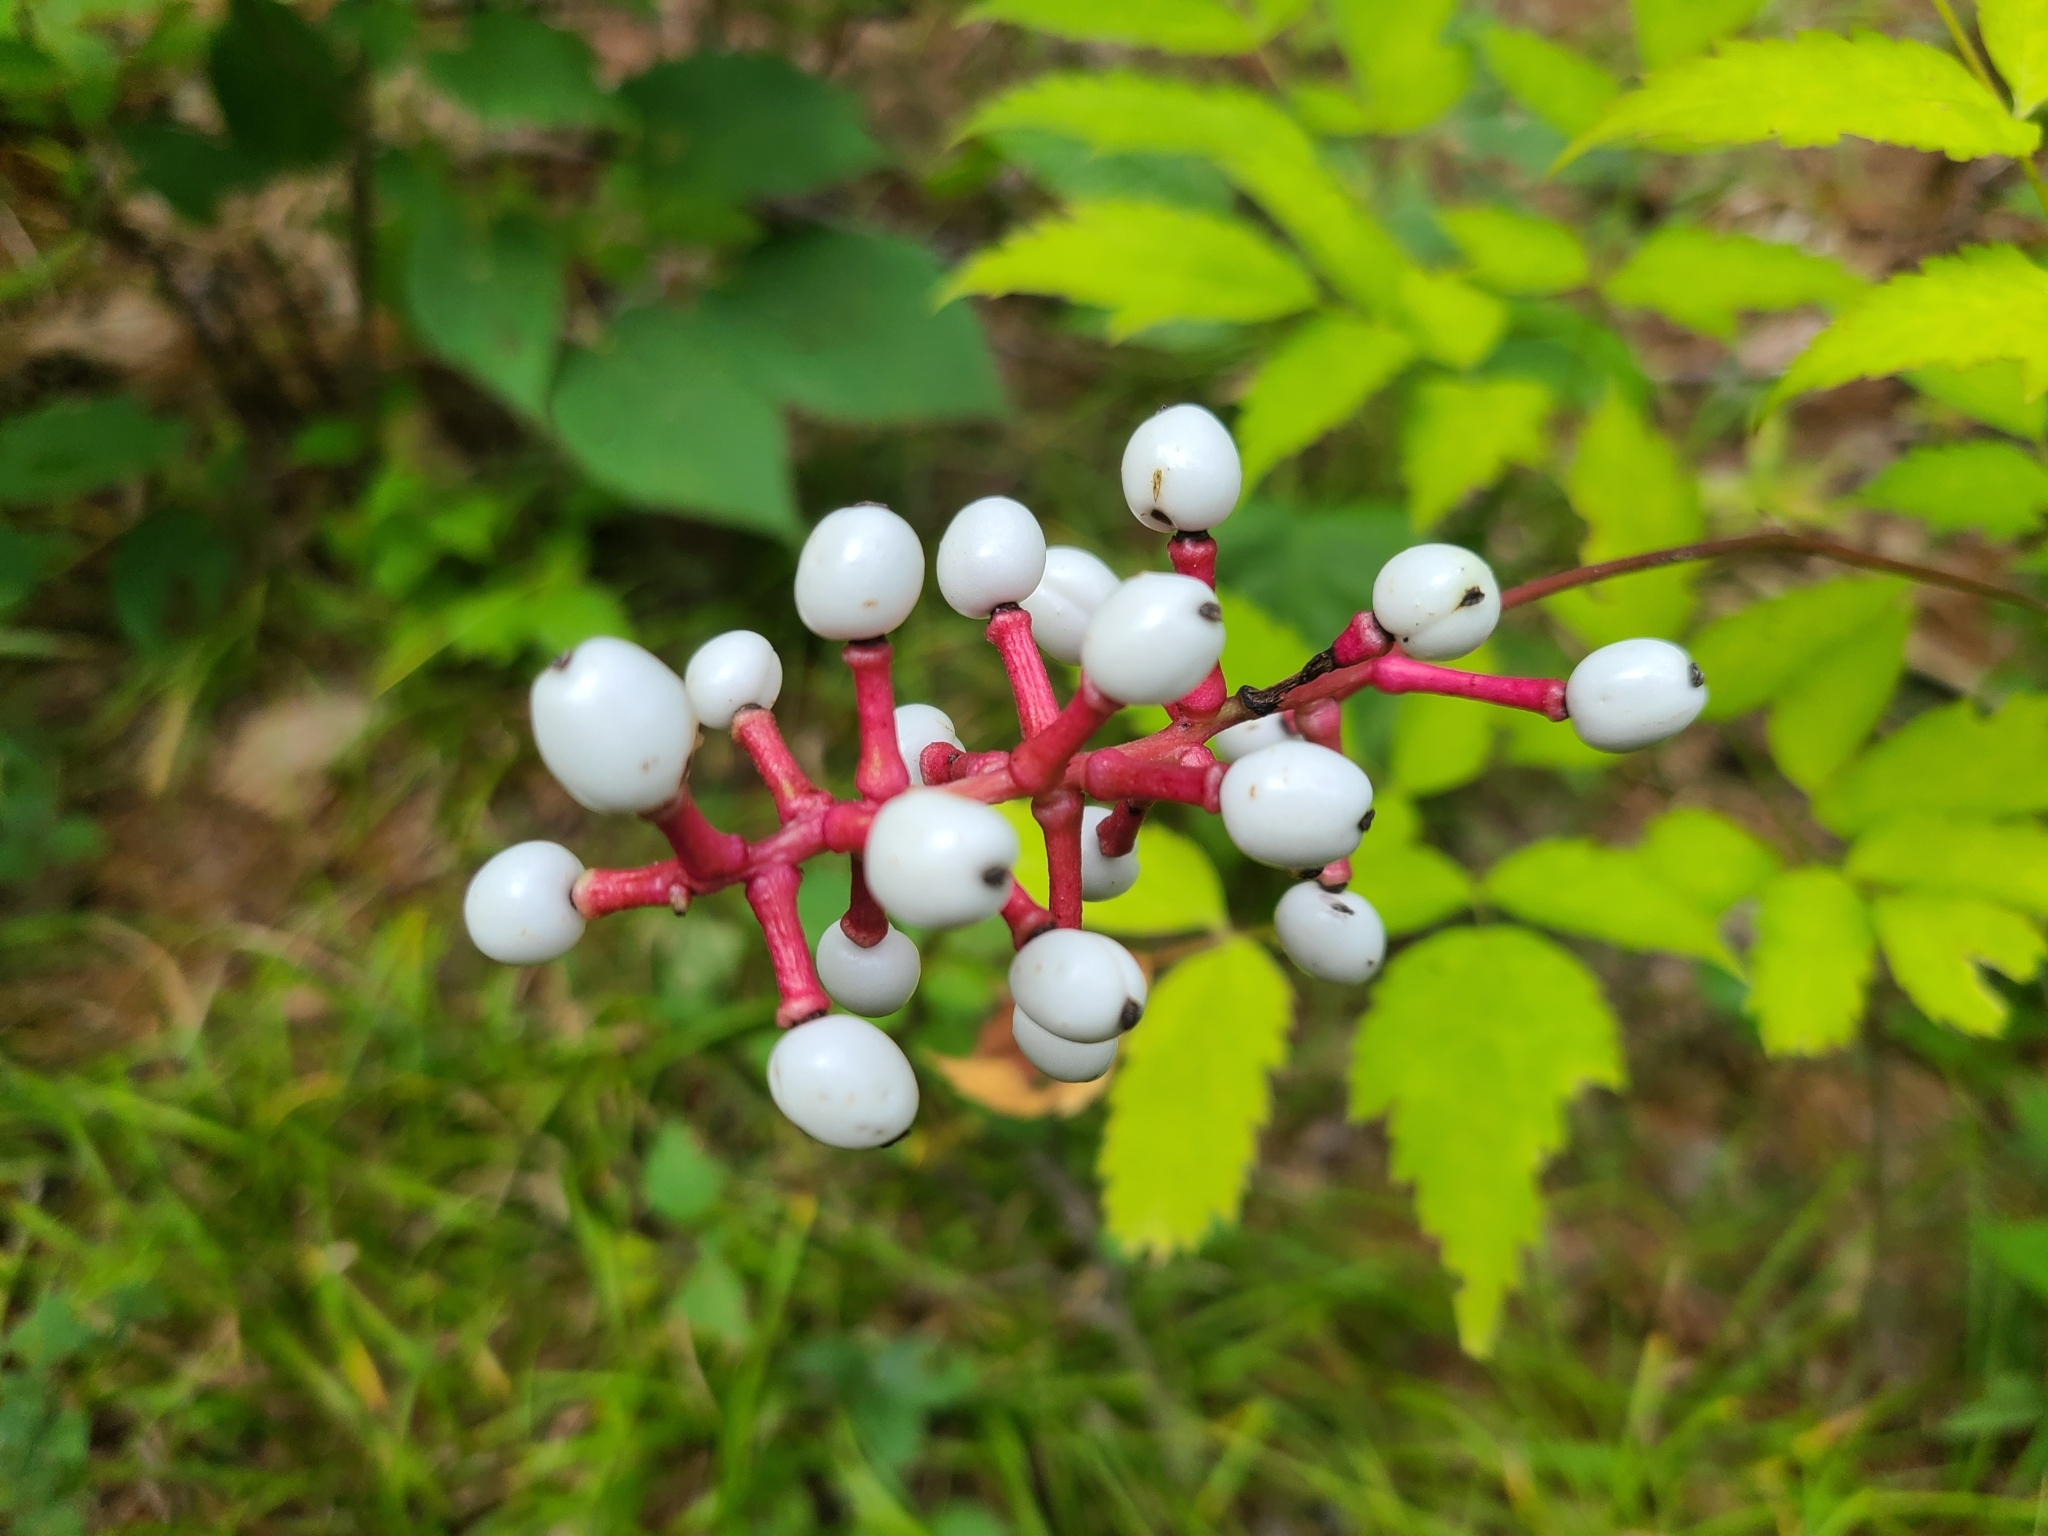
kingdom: Plantae
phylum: Tracheophyta
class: Magnoliopsida
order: Ranunculales
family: Ranunculaceae
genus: Actaea
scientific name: Actaea pachypoda
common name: Doll's-eyes
